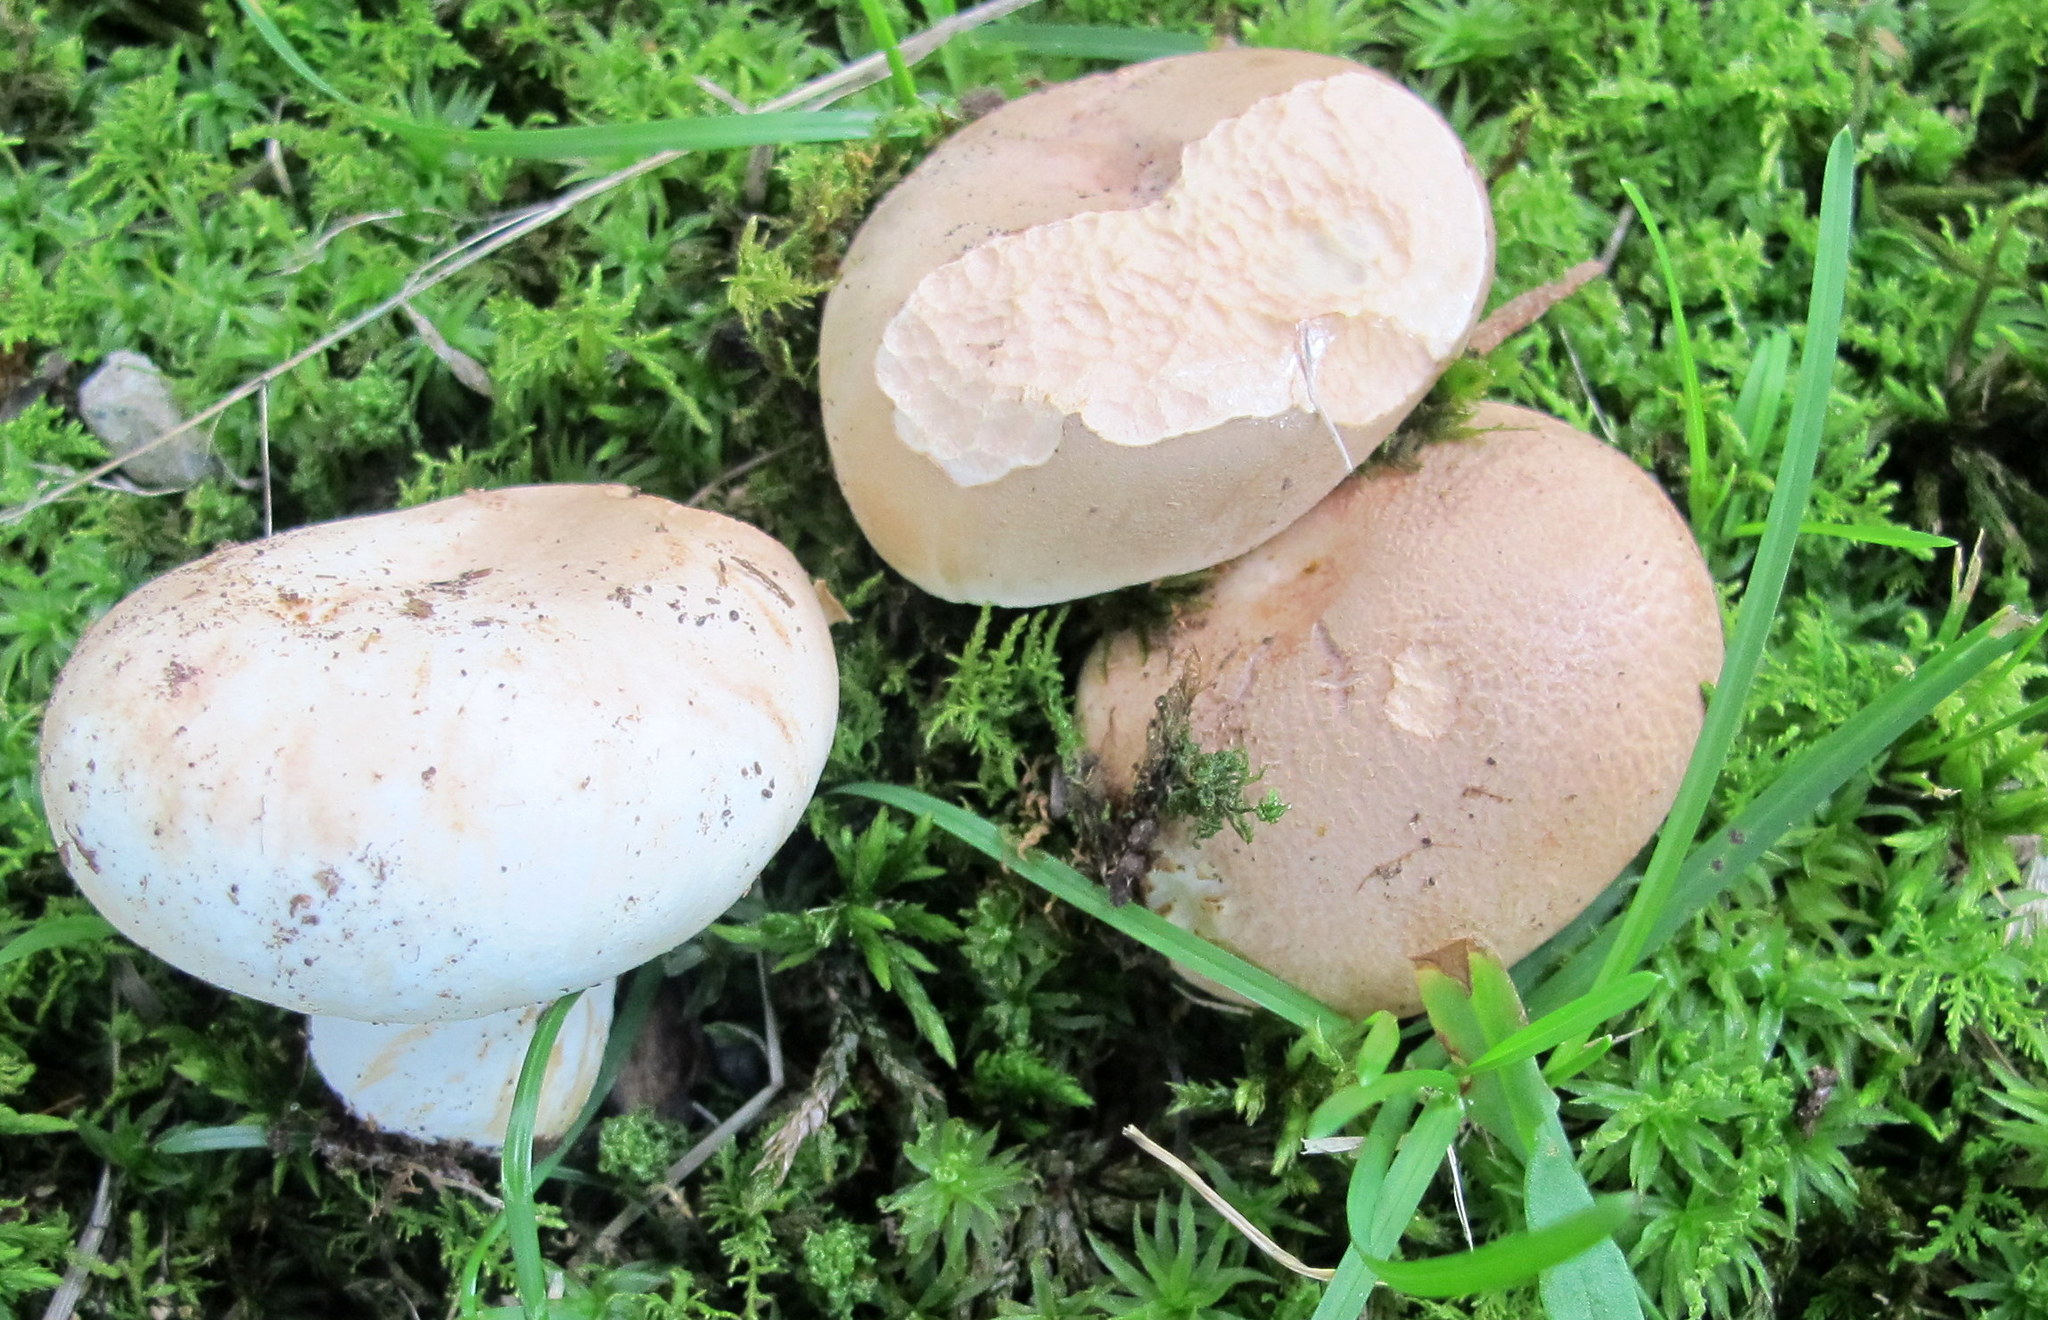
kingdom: Fungi
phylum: Basidiomycota
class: Agaricomycetes
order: Russulales
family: Russulaceae
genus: Russula
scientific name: Russula compacta
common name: Fishbiscuit russula
